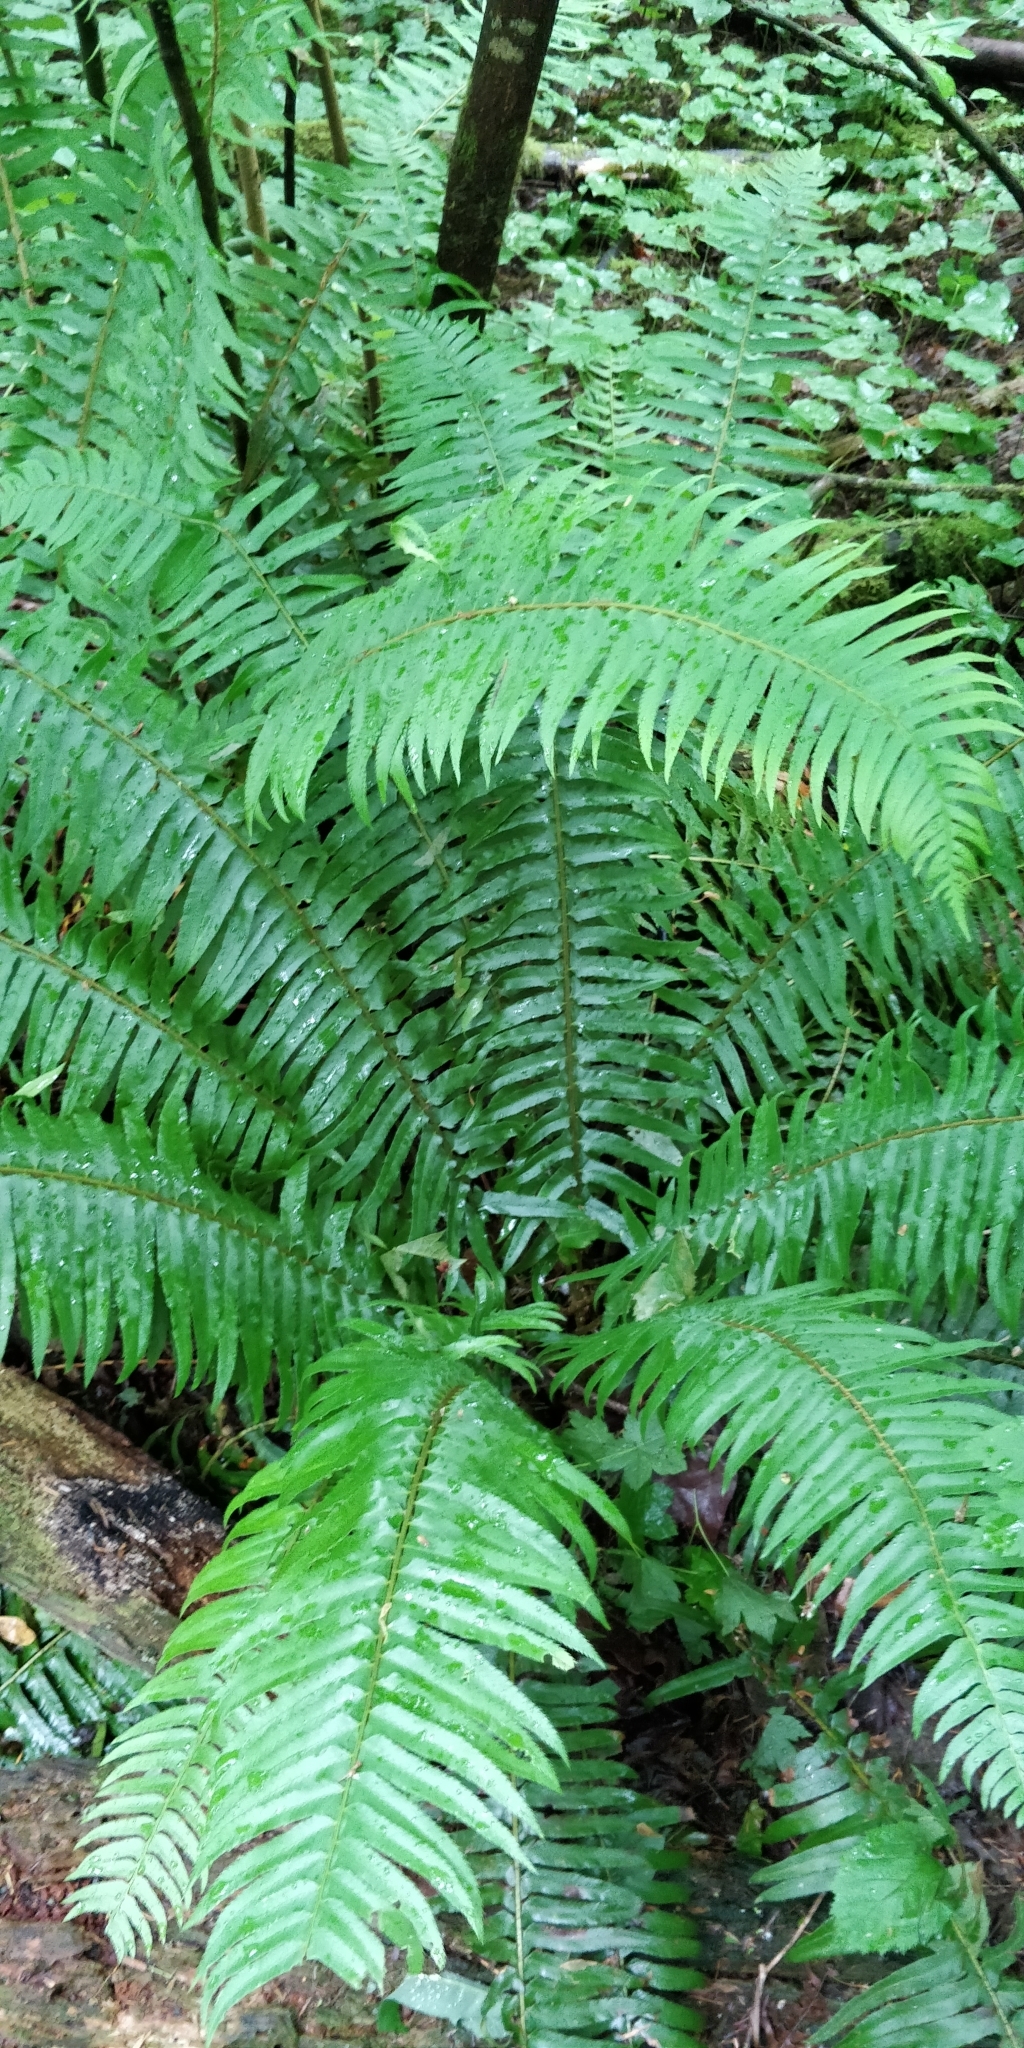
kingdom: Plantae
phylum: Tracheophyta
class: Polypodiopsida
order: Polypodiales
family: Dryopteridaceae
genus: Polystichum
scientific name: Polystichum munitum
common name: Western sword-fern
